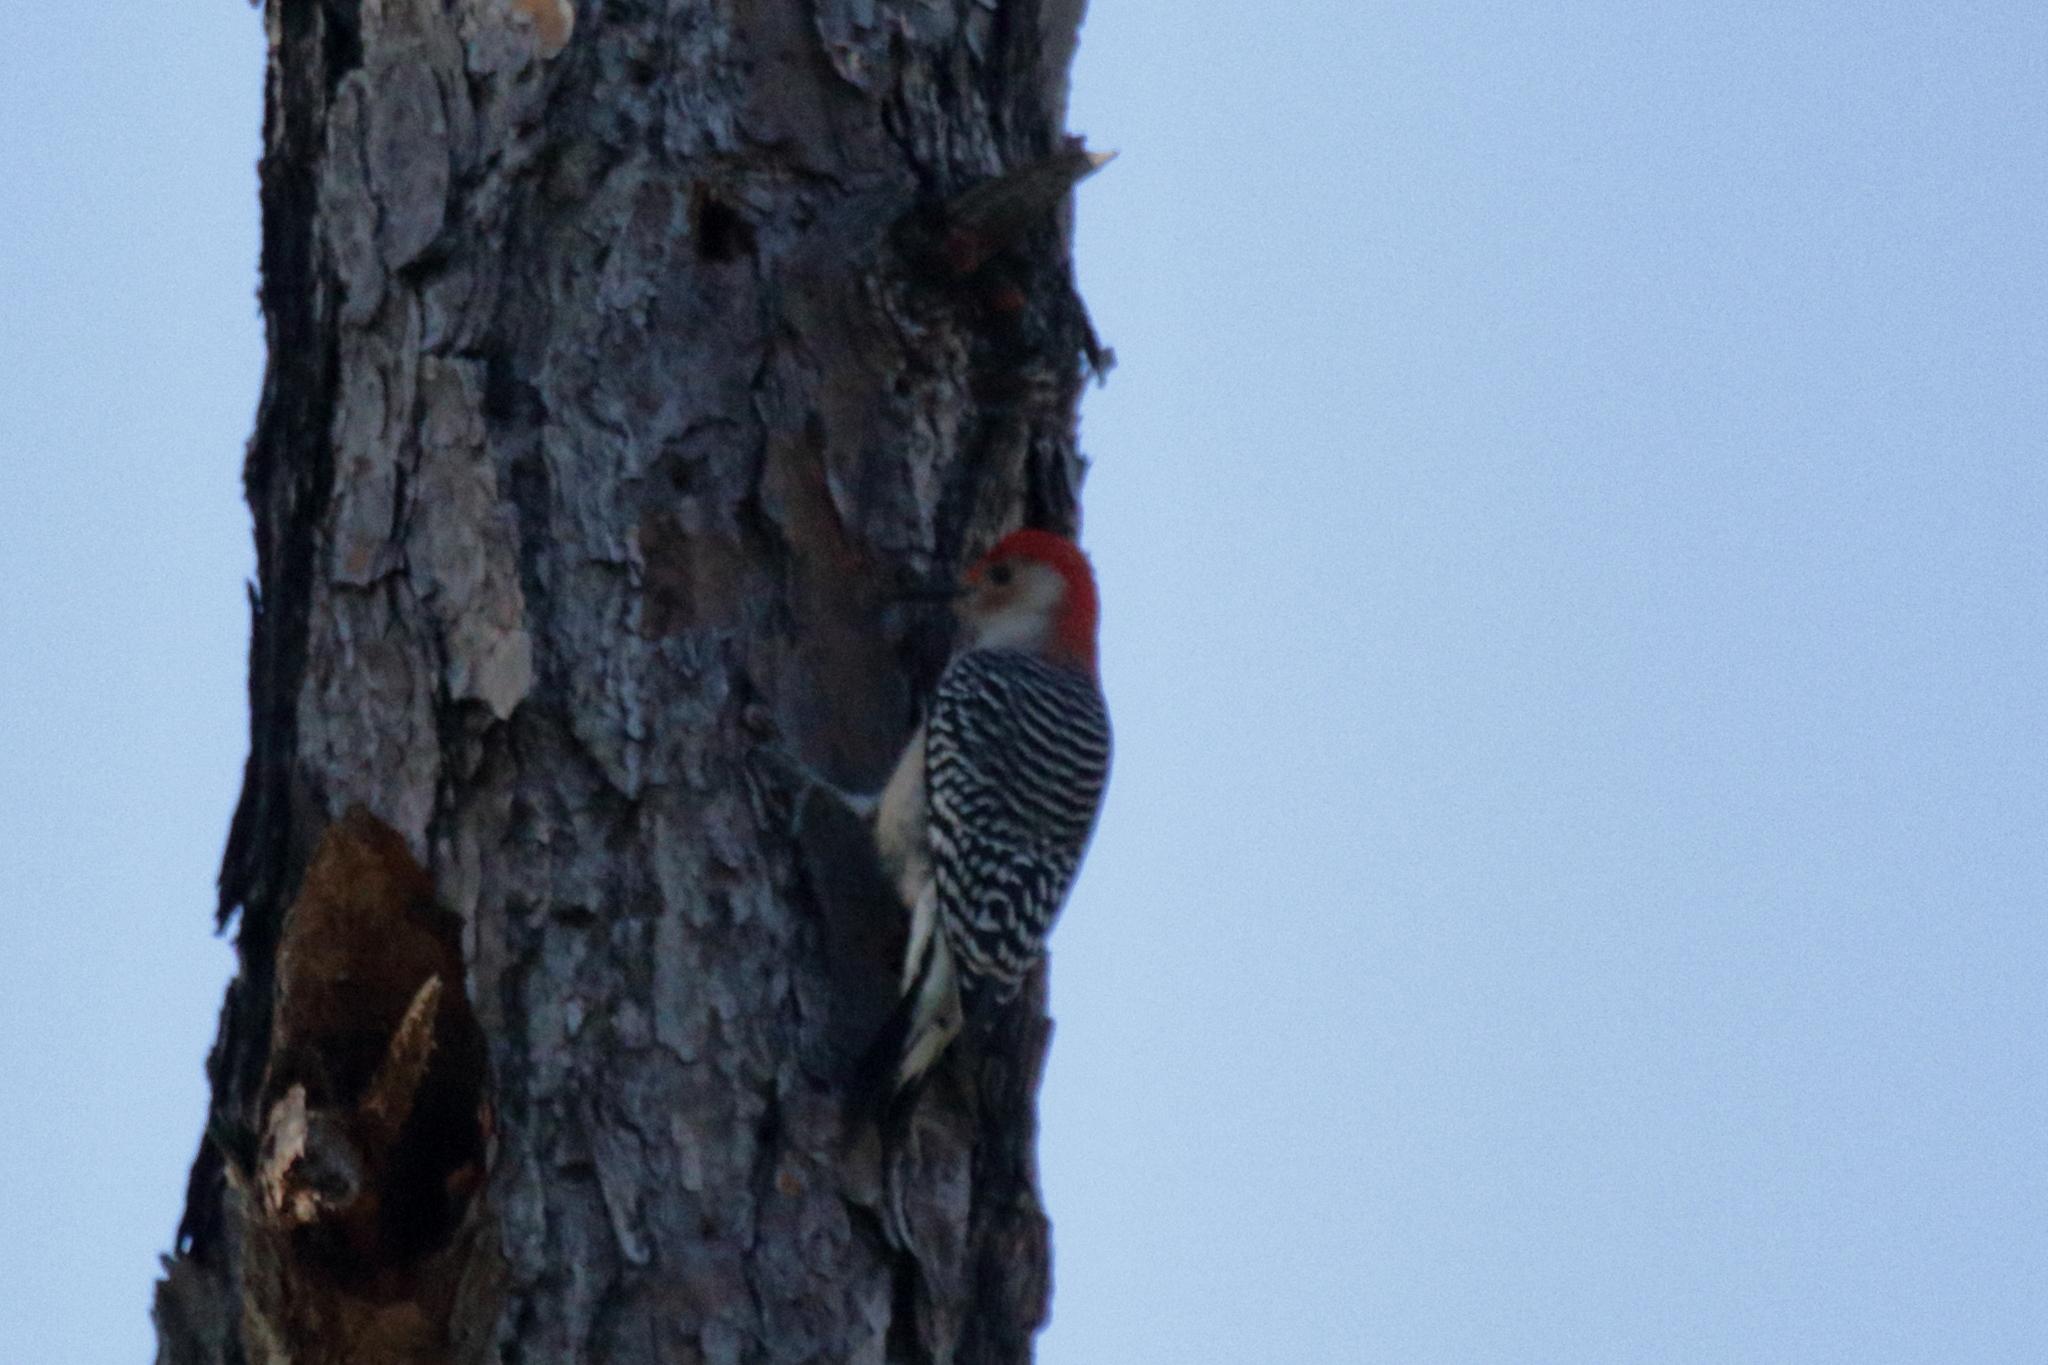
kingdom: Animalia
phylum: Chordata
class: Aves
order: Piciformes
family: Picidae
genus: Melanerpes
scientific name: Melanerpes carolinus
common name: Red-bellied woodpecker
